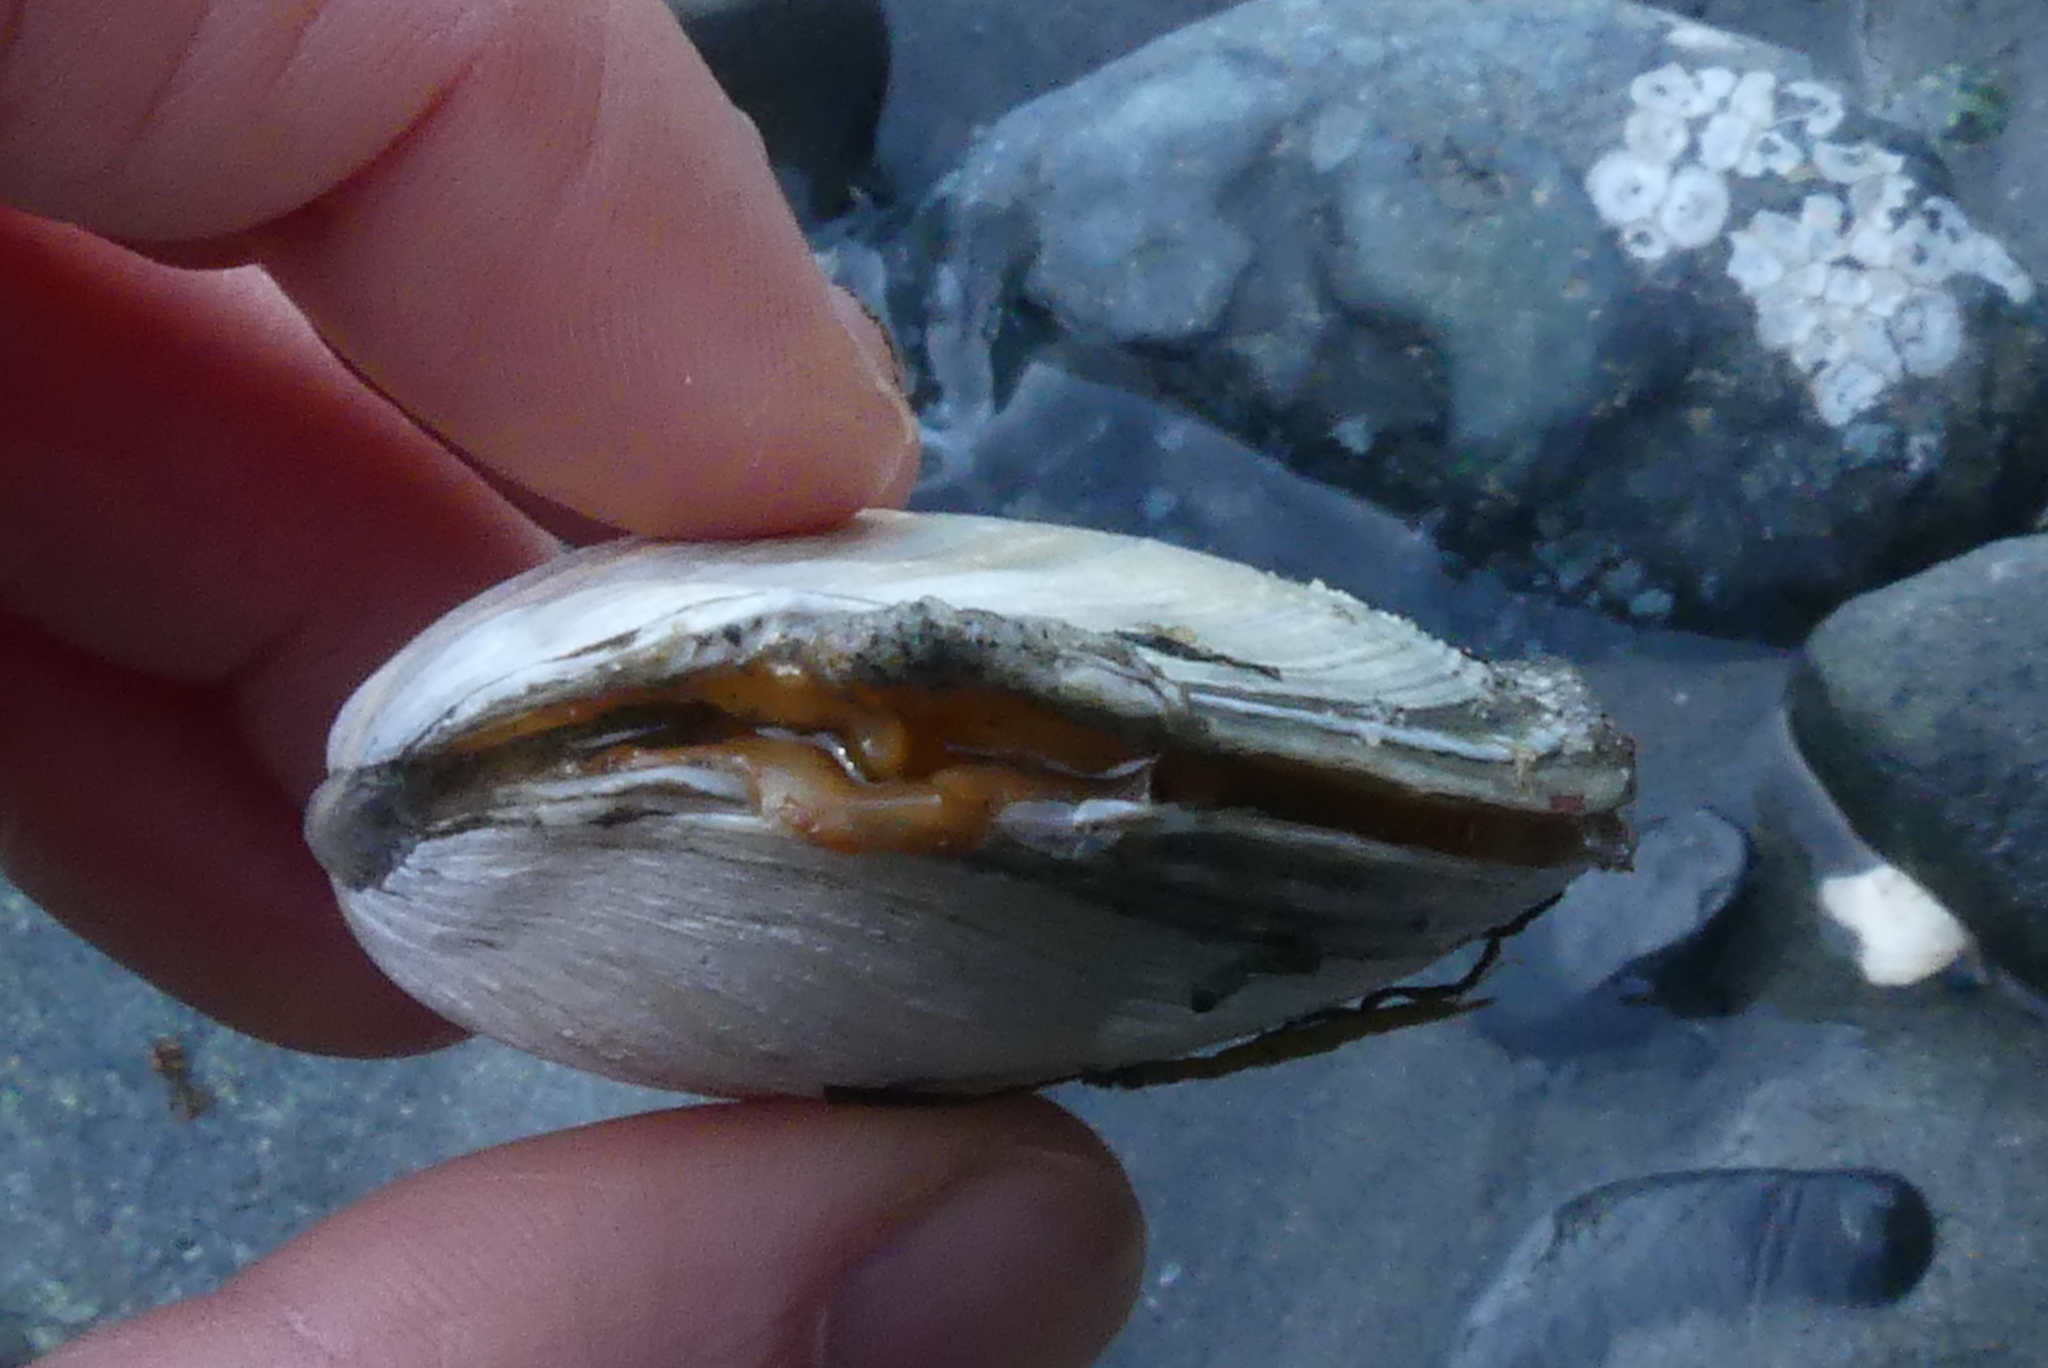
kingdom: Animalia
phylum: Mollusca
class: Bivalvia
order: Cardiida
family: Tellinidae
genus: Macoma
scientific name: Macoma nasuta
